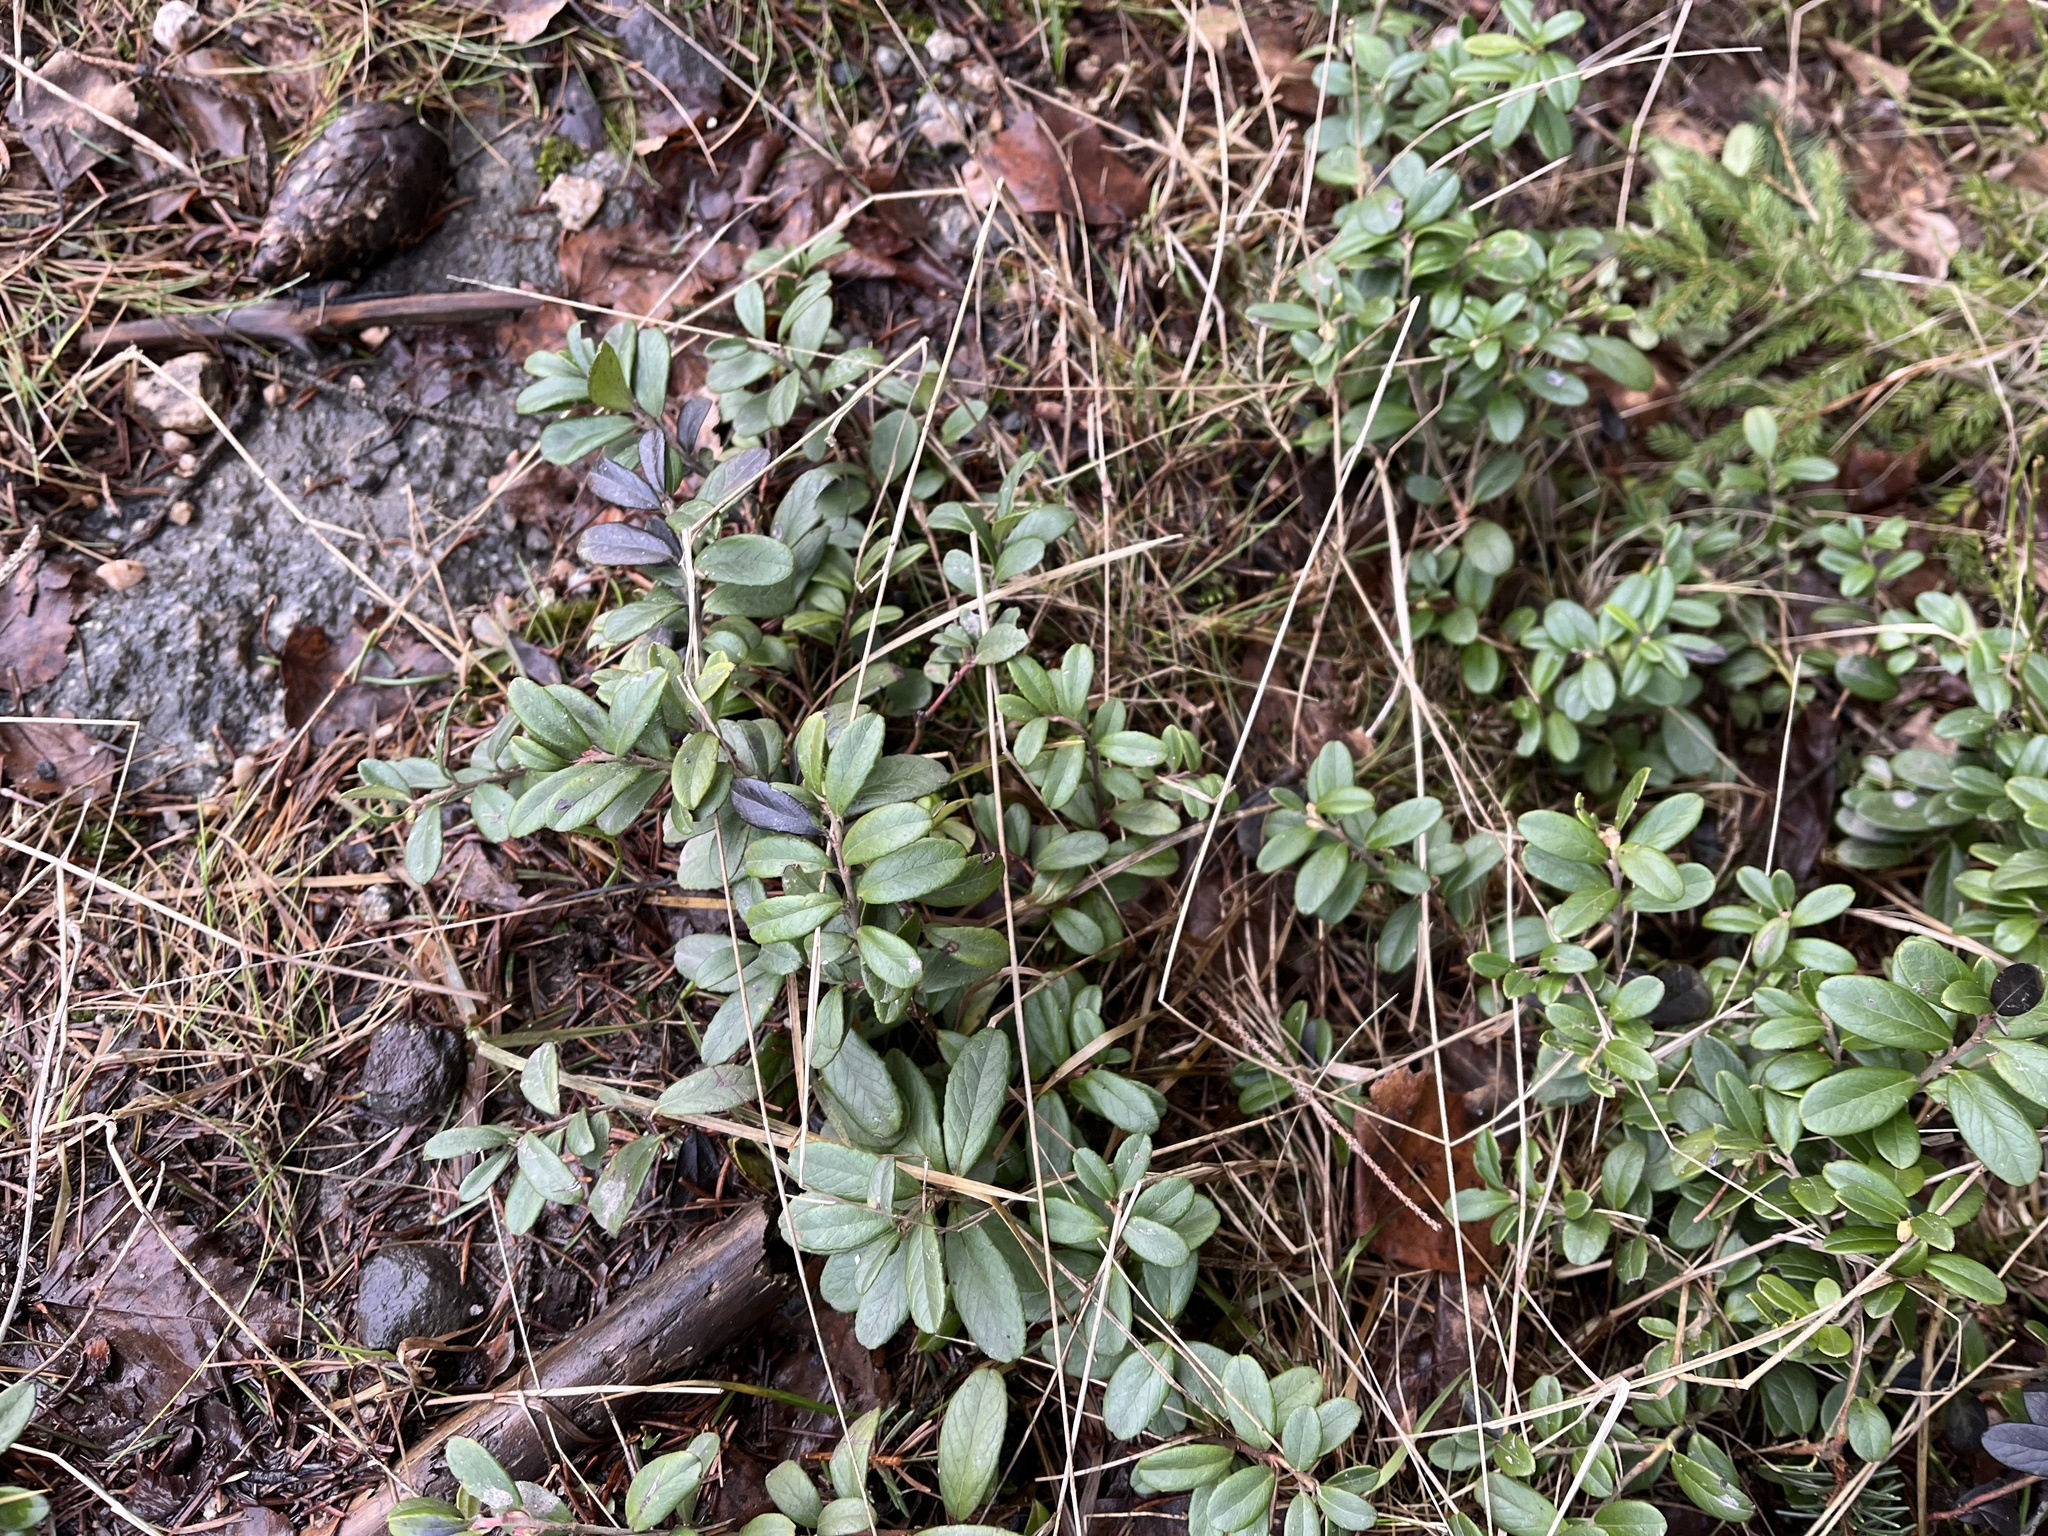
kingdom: Plantae
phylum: Tracheophyta
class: Magnoliopsida
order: Ericales
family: Ericaceae
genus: Vaccinium
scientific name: Vaccinium vitis-idaea
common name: Cowberry
